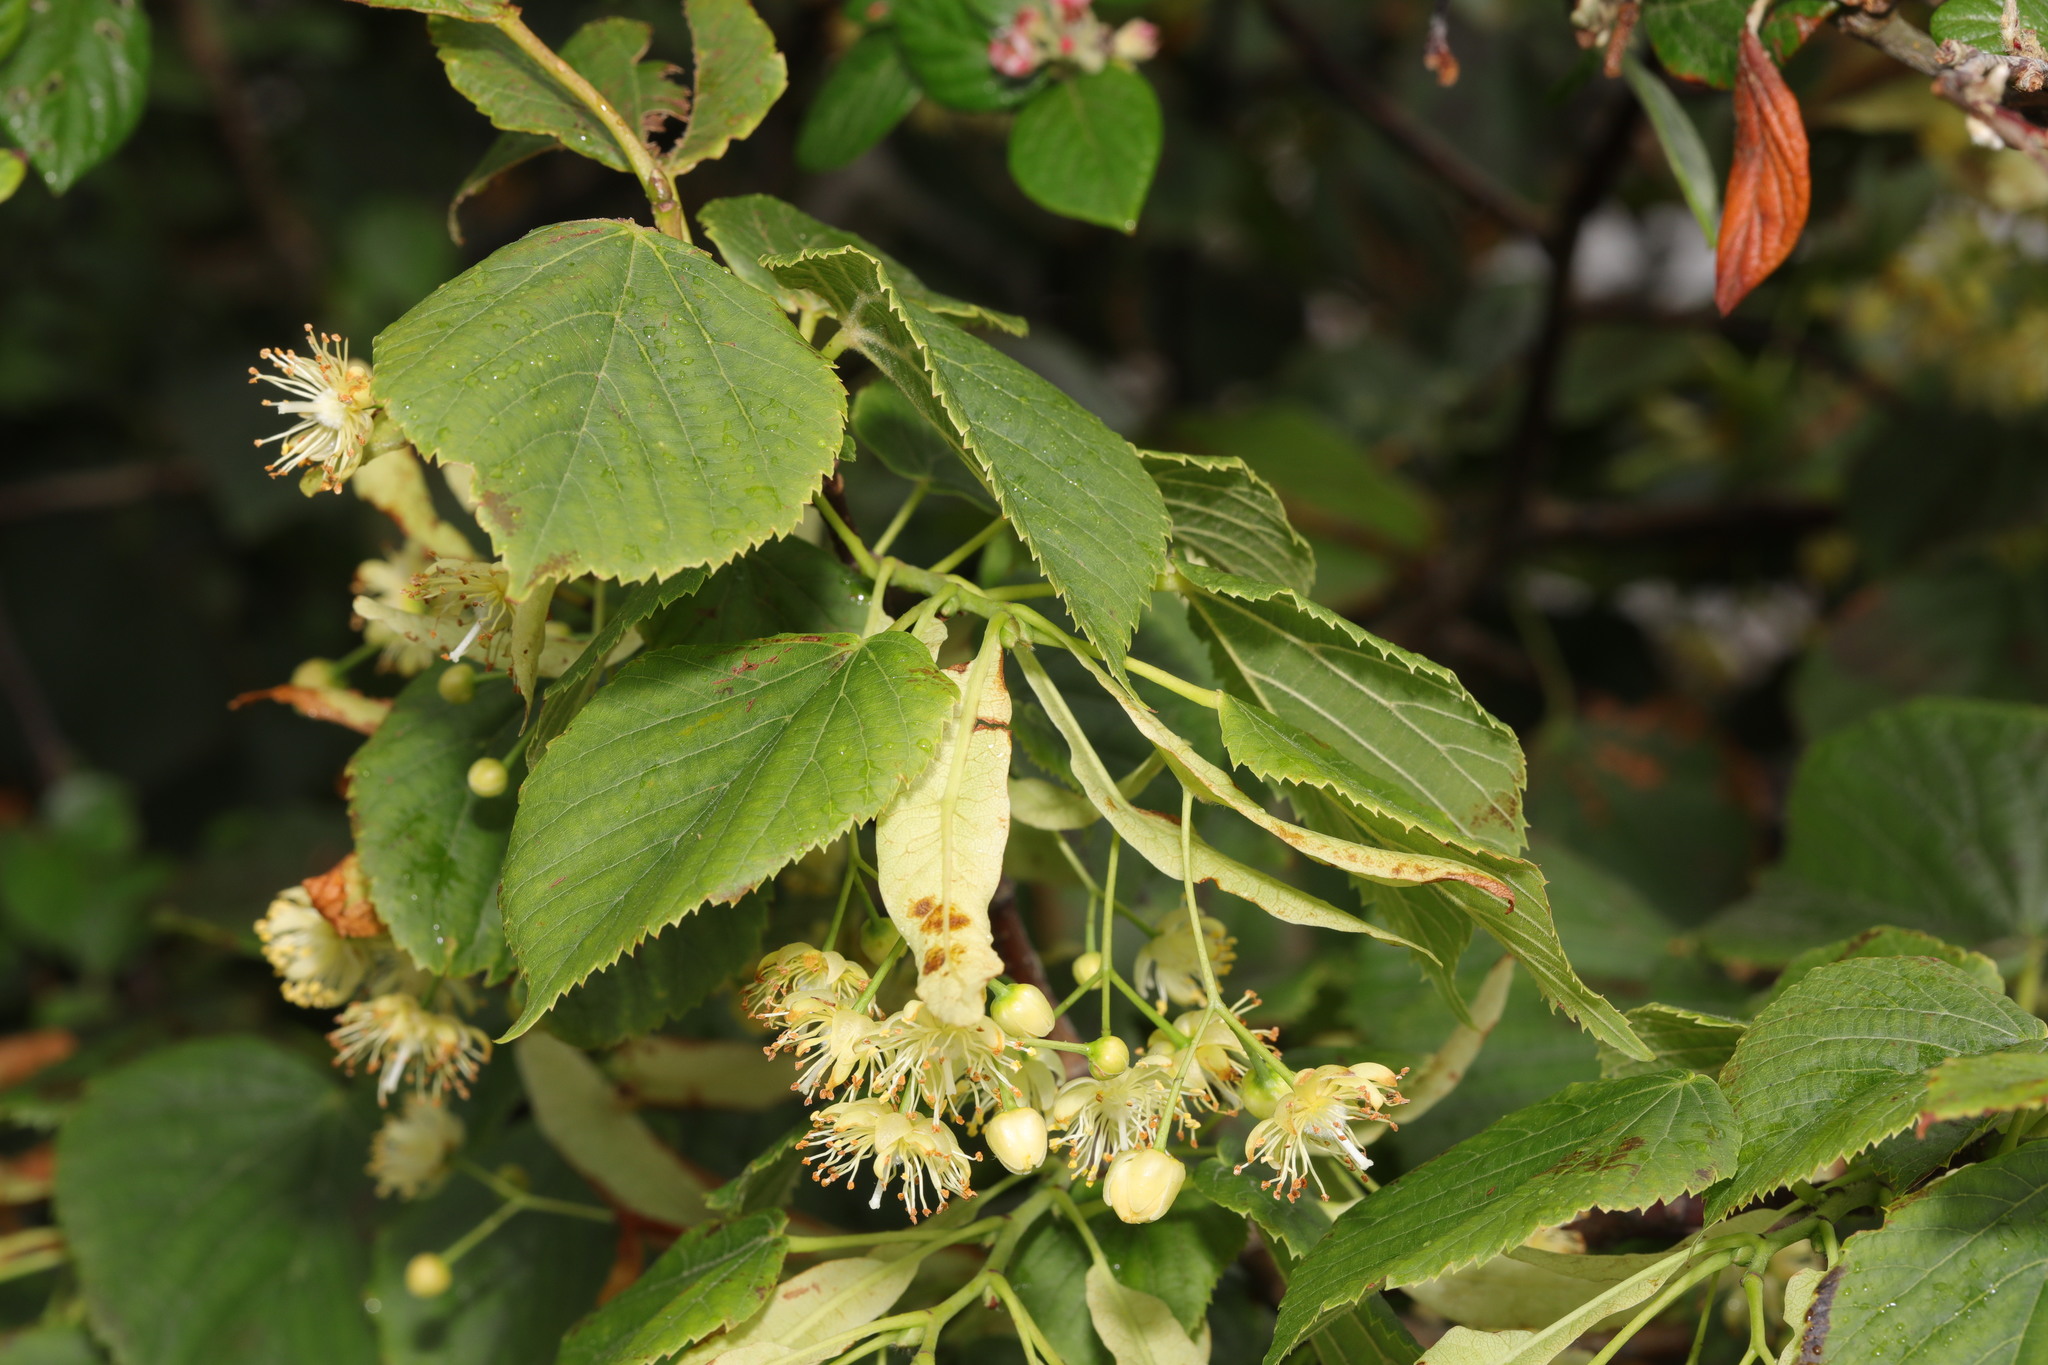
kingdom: Plantae
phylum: Tracheophyta
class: Magnoliopsida
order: Malvales
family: Malvaceae
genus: Tilia
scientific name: Tilia europaea
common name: European linden
